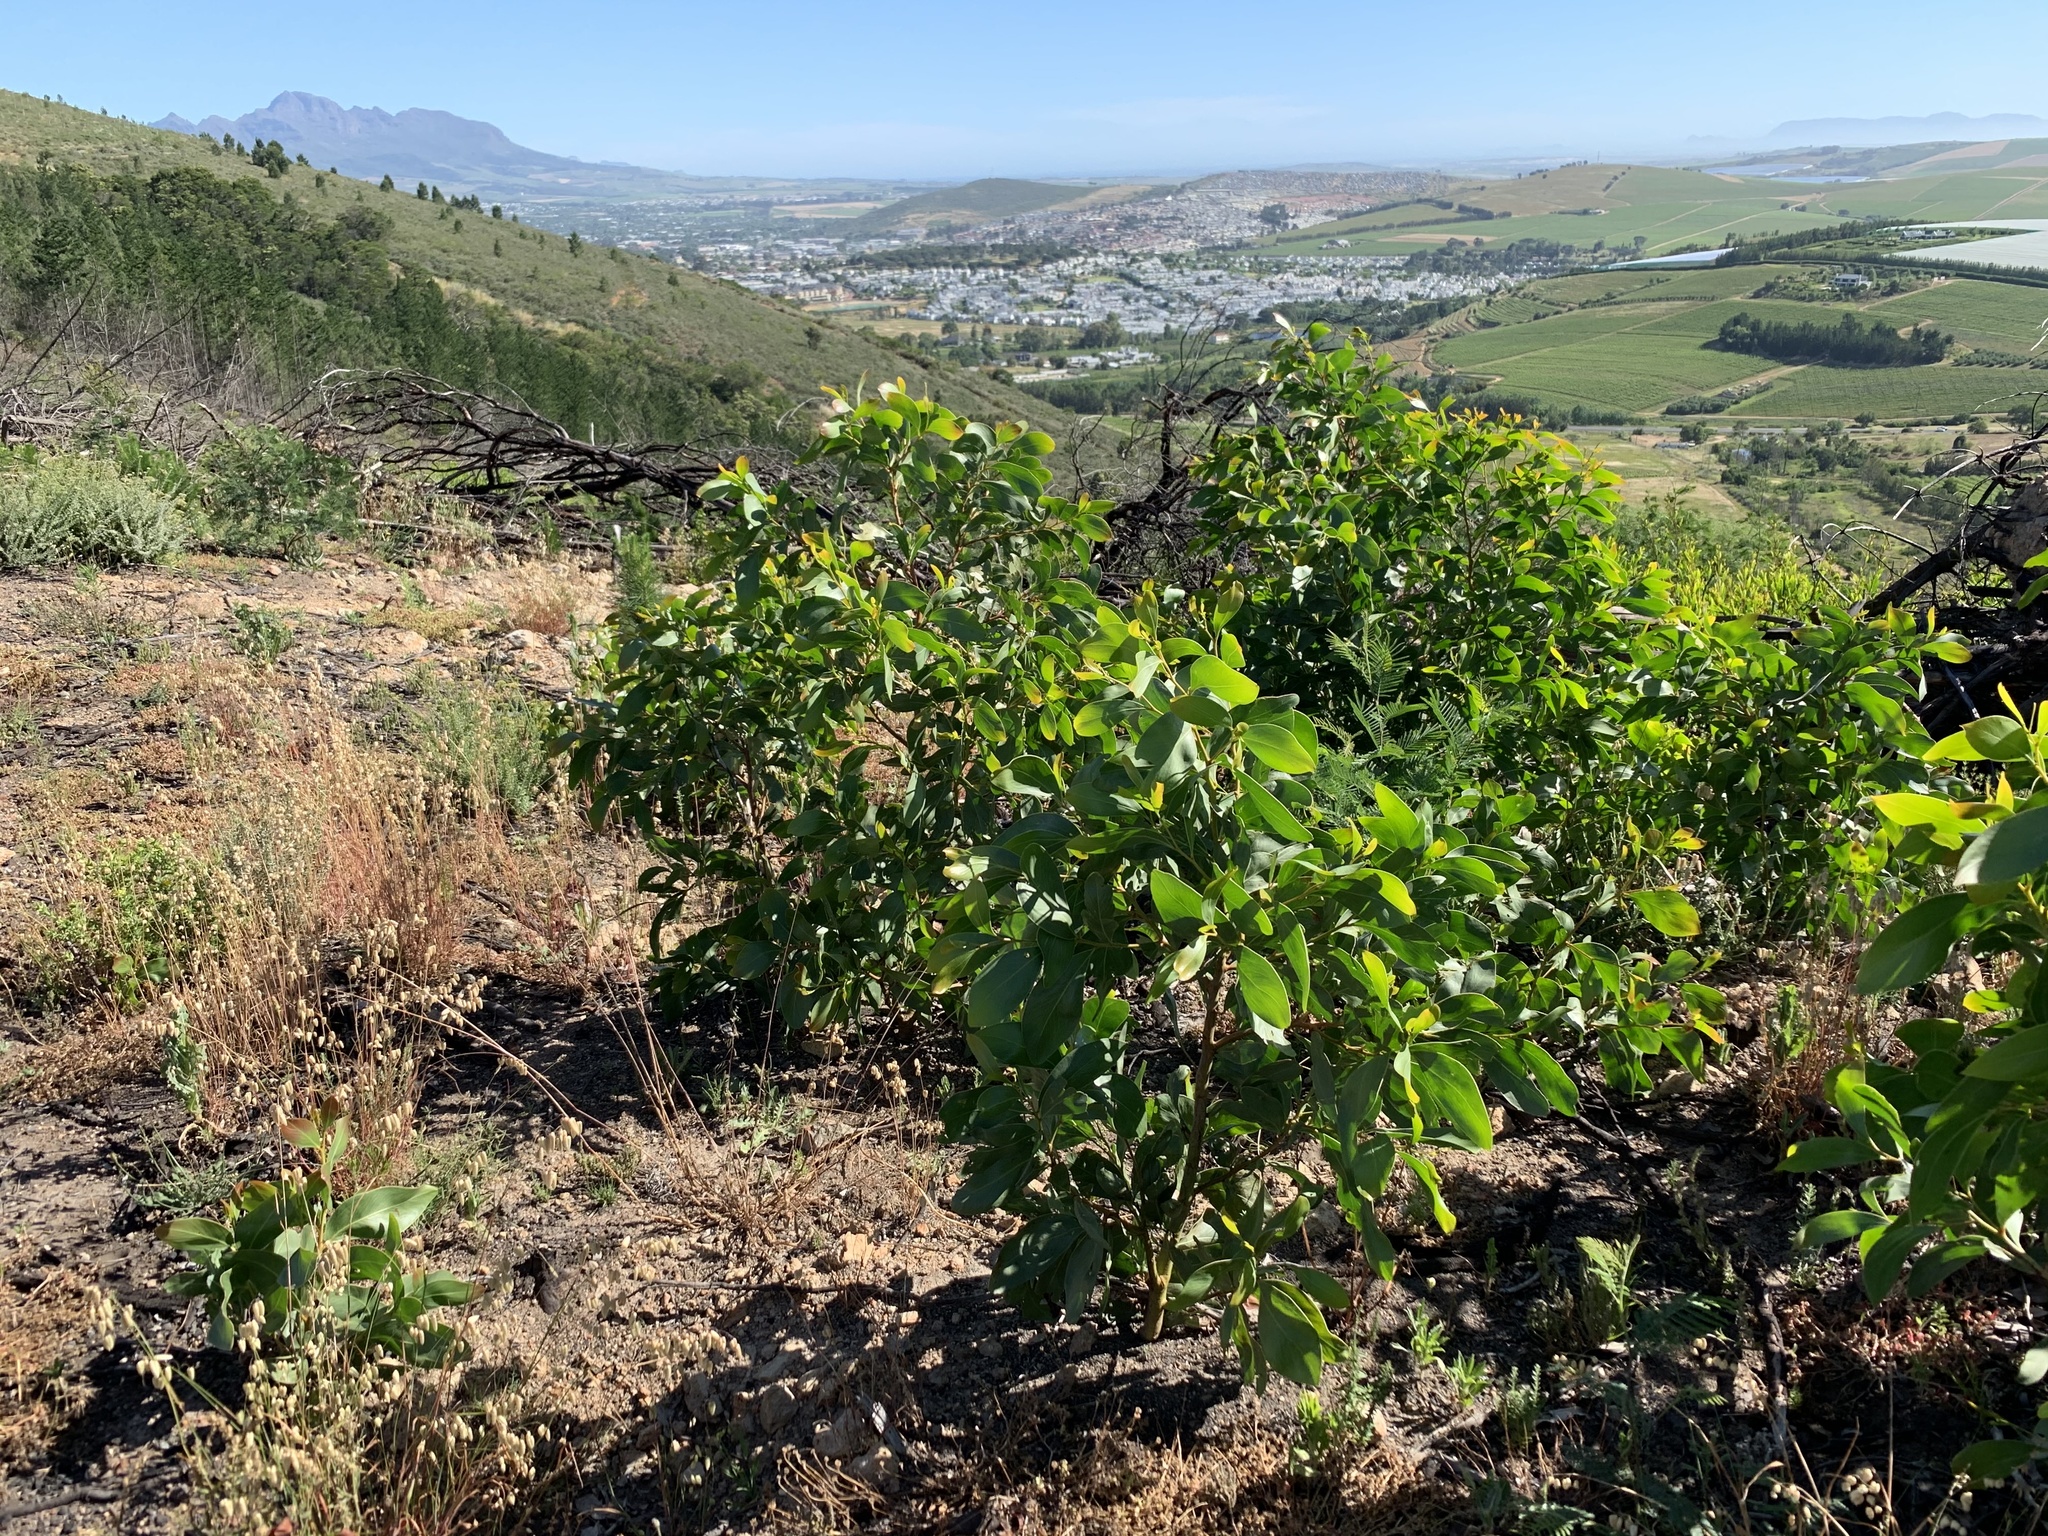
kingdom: Plantae
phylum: Tracheophyta
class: Magnoliopsida
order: Fabales
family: Fabaceae
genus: Acacia
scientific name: Acacia pycnantha
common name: Golden wattle
